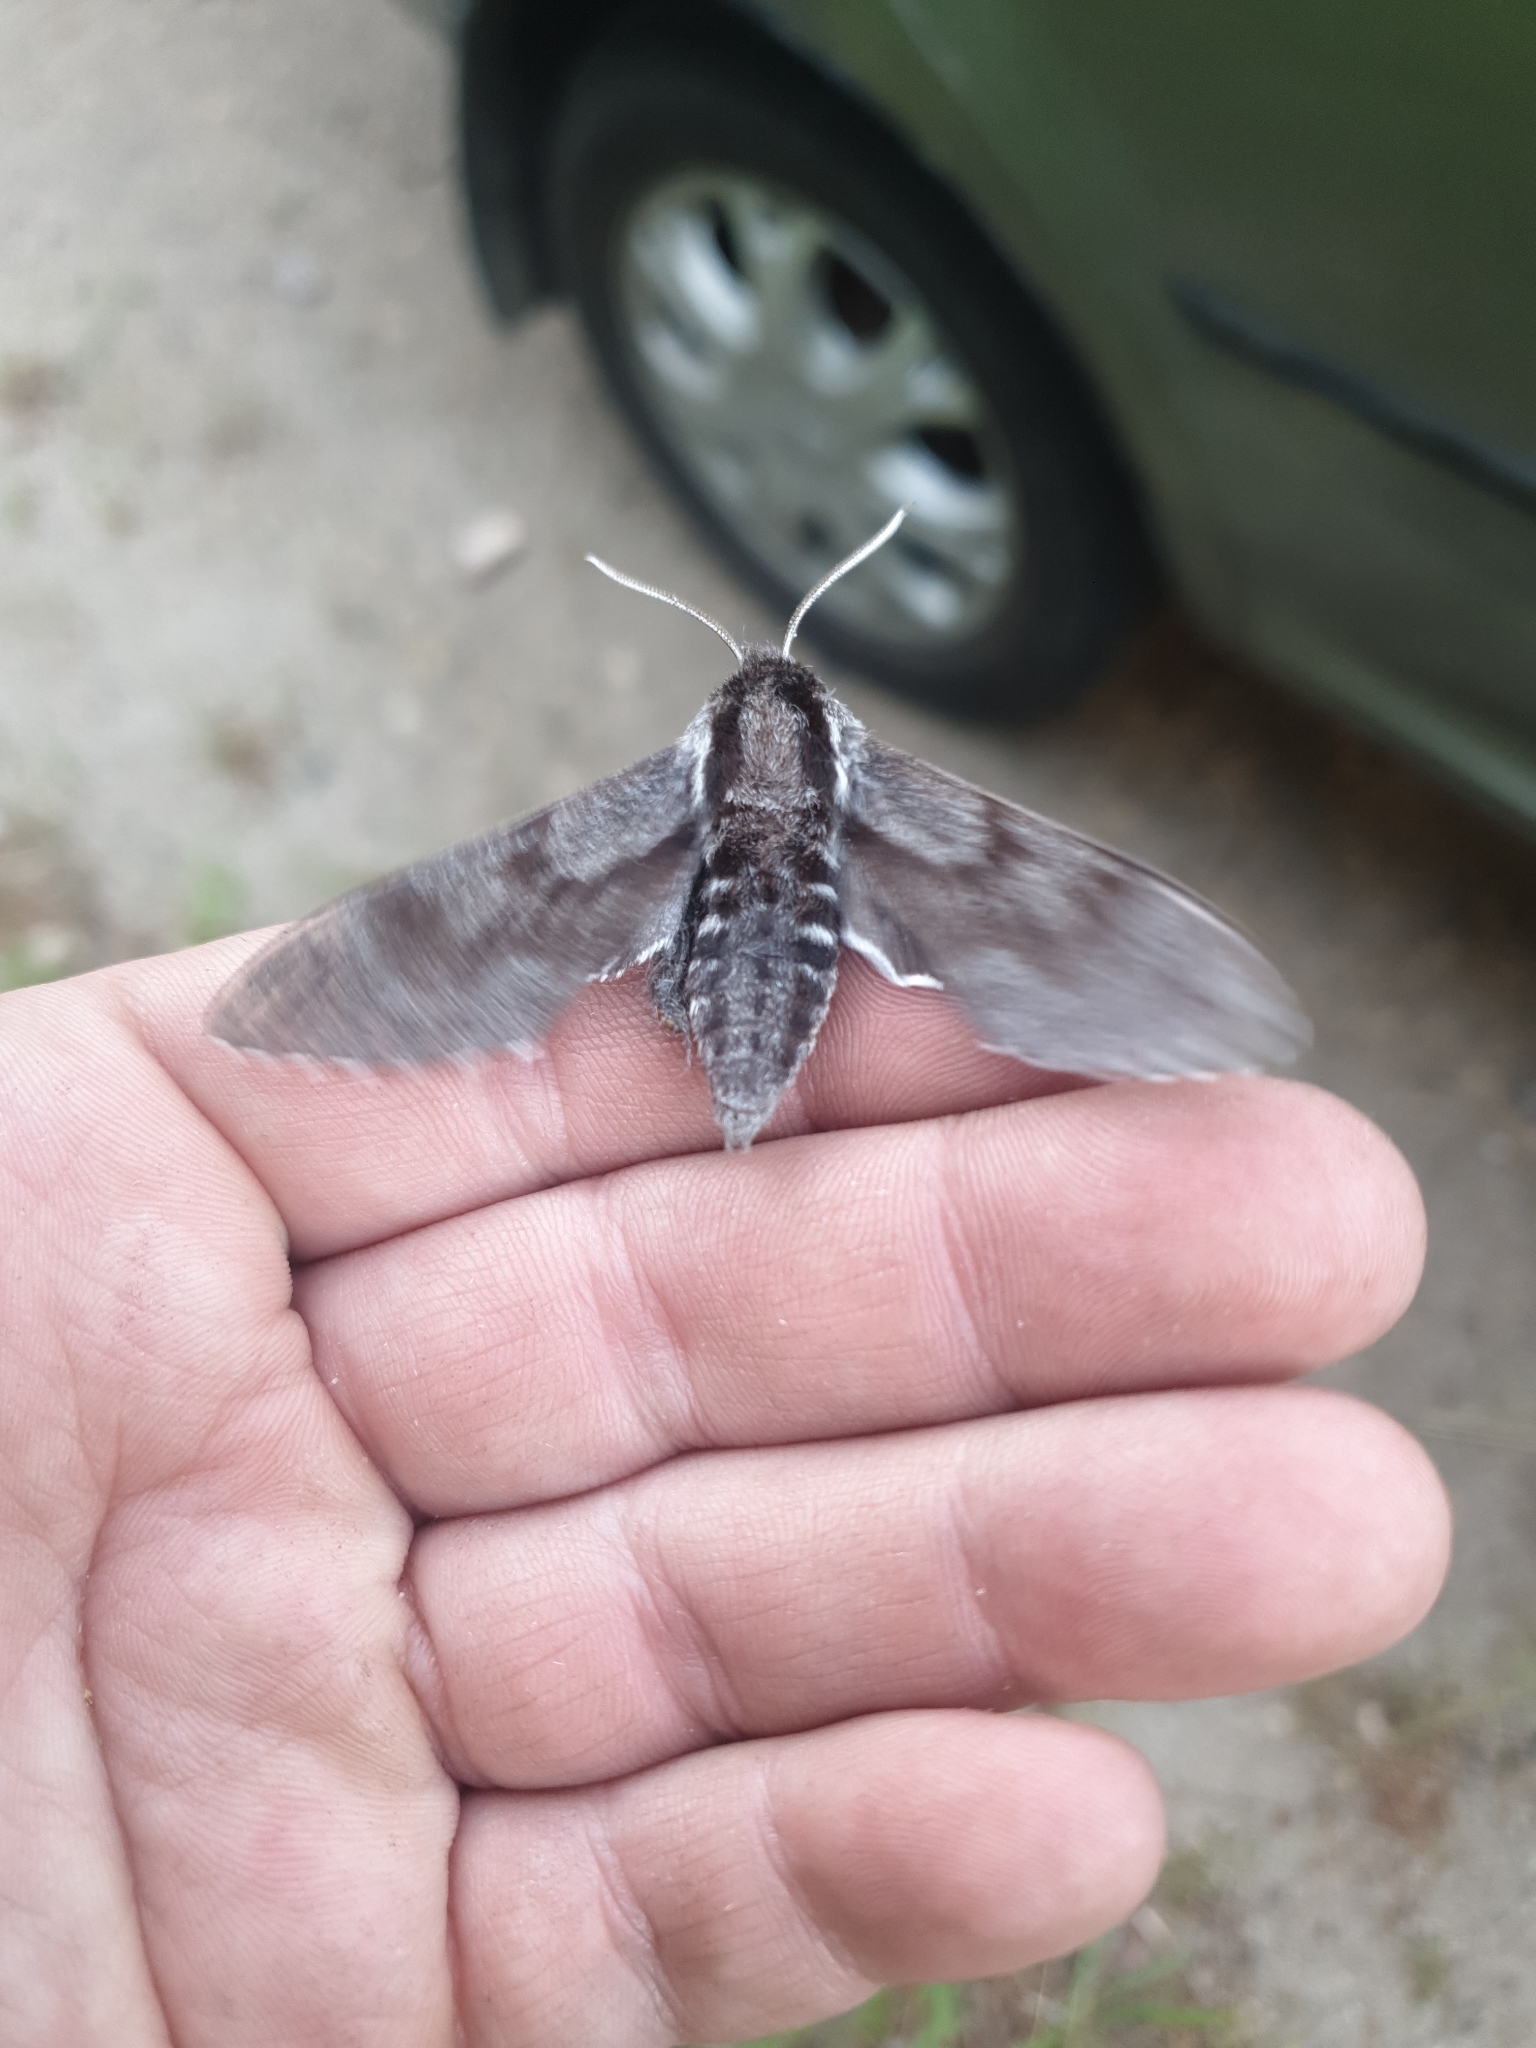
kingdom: Animalia
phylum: Arthropoda
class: Insecta
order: Lepidoptera
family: Sphingidae
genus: Sphinx
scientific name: Sphinx pinastri
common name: Pine hawk-moth
